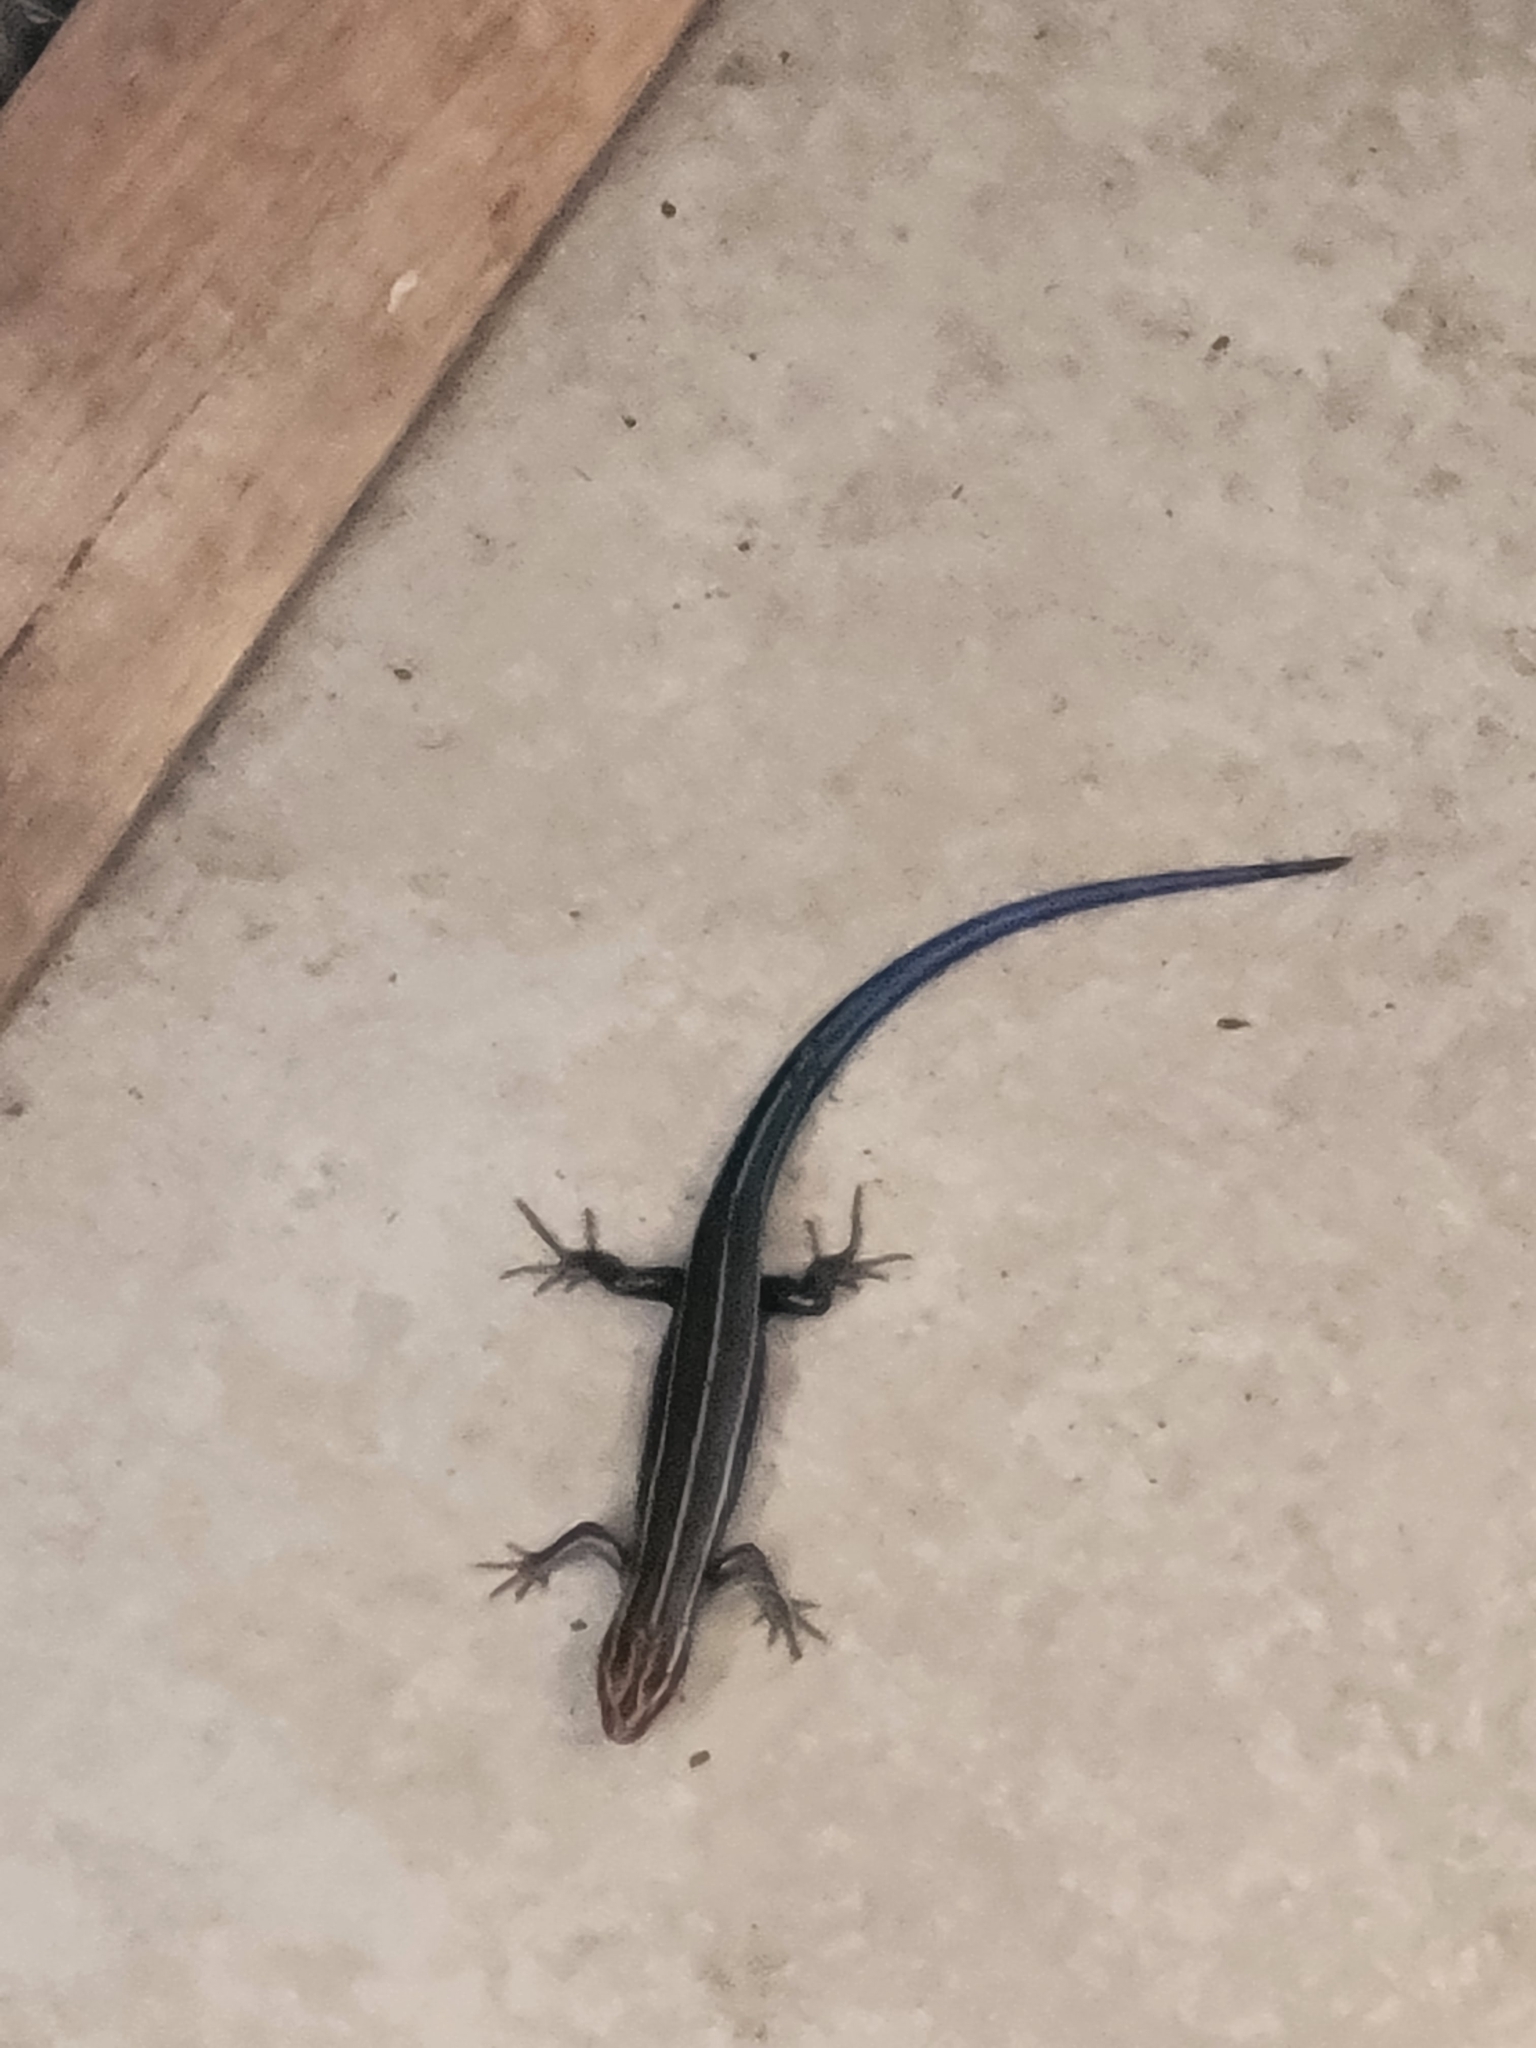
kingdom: Animalia
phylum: Chordata
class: Squamata
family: Scincidae
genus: Plestiodon
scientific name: Plestiodon inexpectatus
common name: Southeastern five-lined skink
